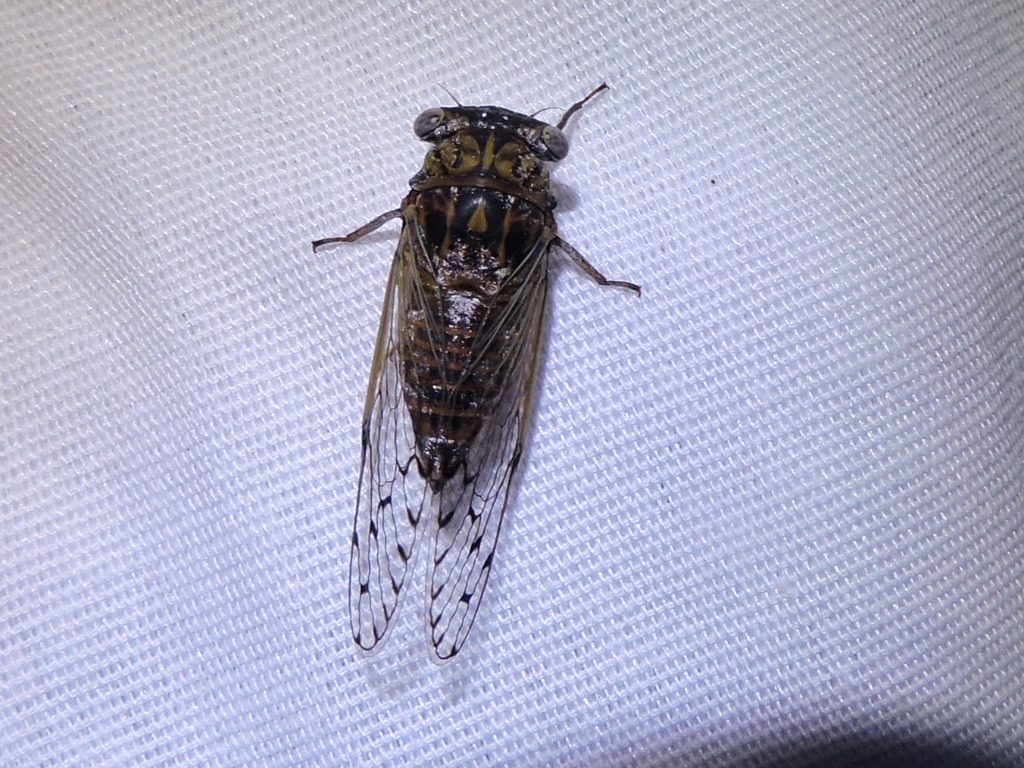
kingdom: Animalia
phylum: Arthropoda
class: Insecta
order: Hemiptera
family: Cicadidae
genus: Pacarina
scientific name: Pacarina puella
